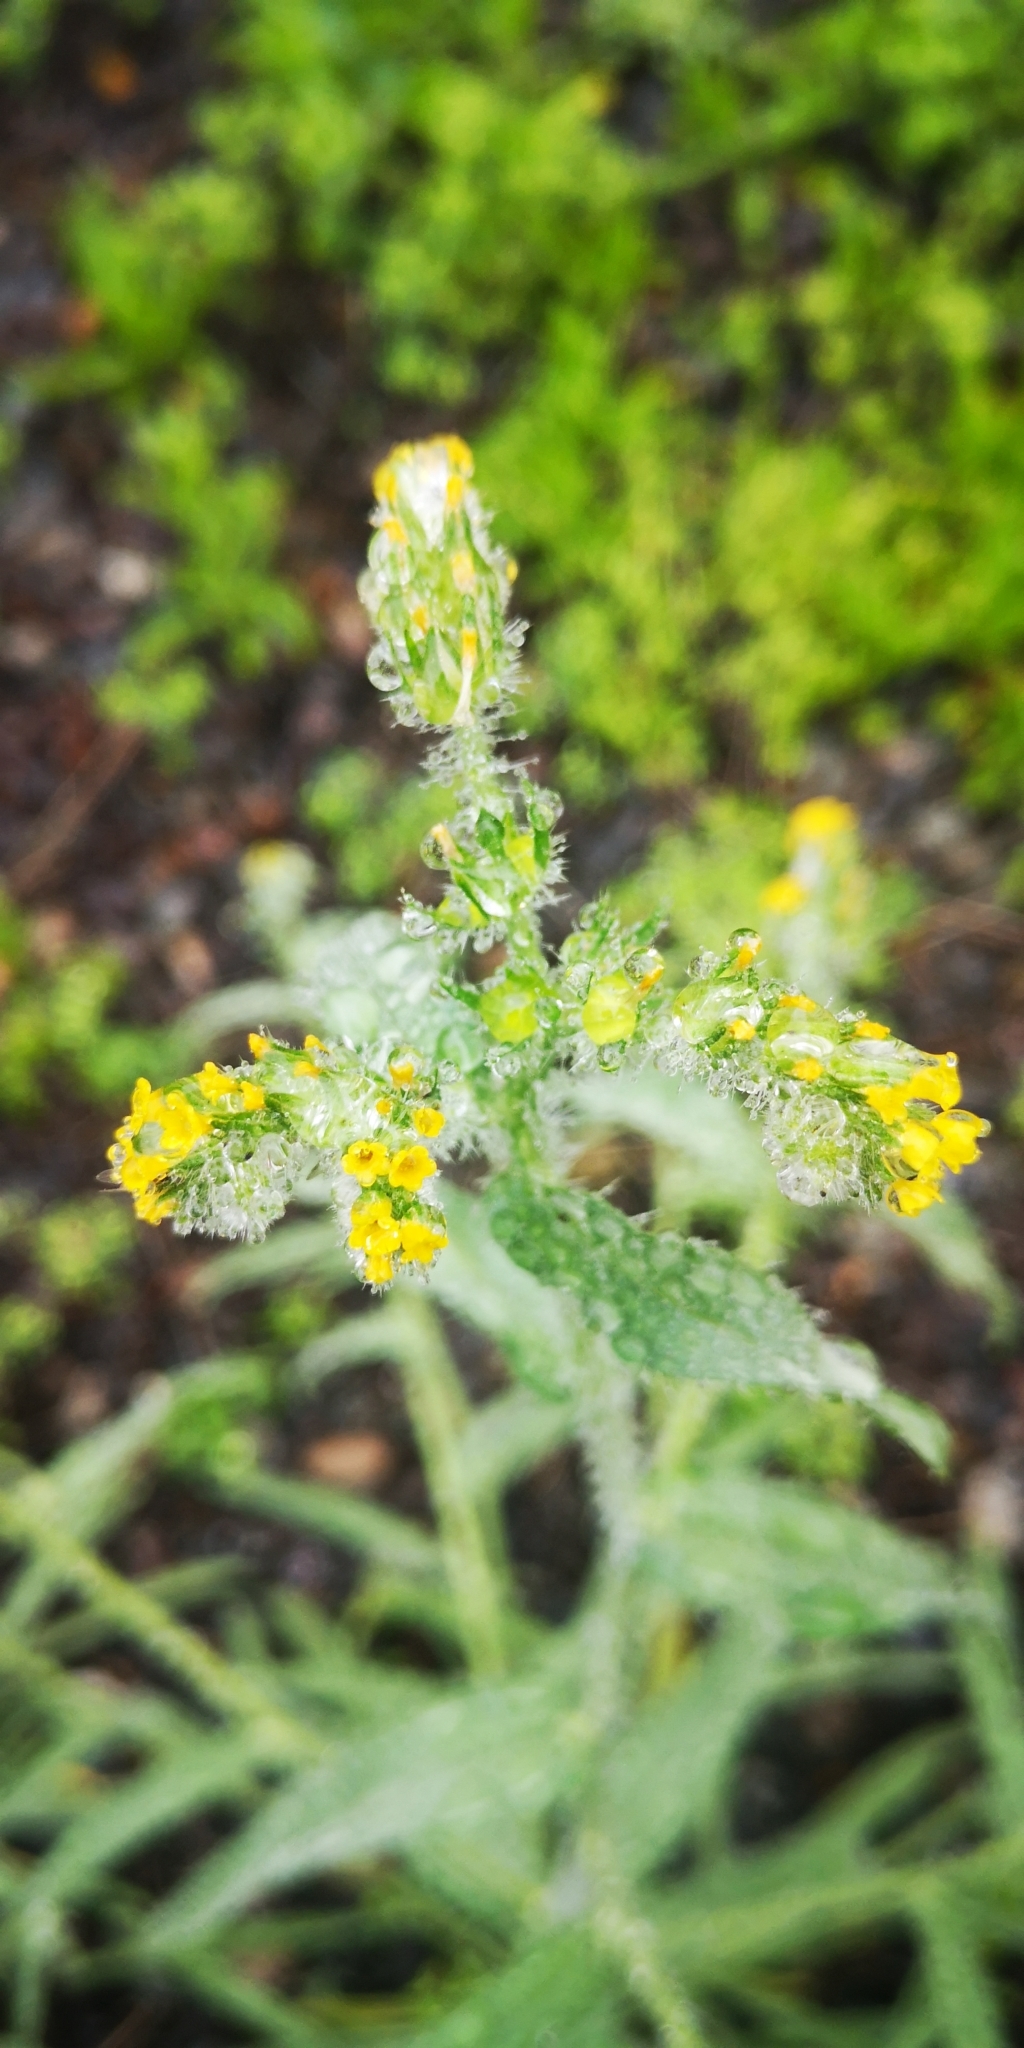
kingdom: Plantae
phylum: Tracheophyta
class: Magnoliopsida
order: Boraginales
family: Boraginaceae
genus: Amsinckia
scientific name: Amsinckia calycina
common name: Hairy fiddleneck
